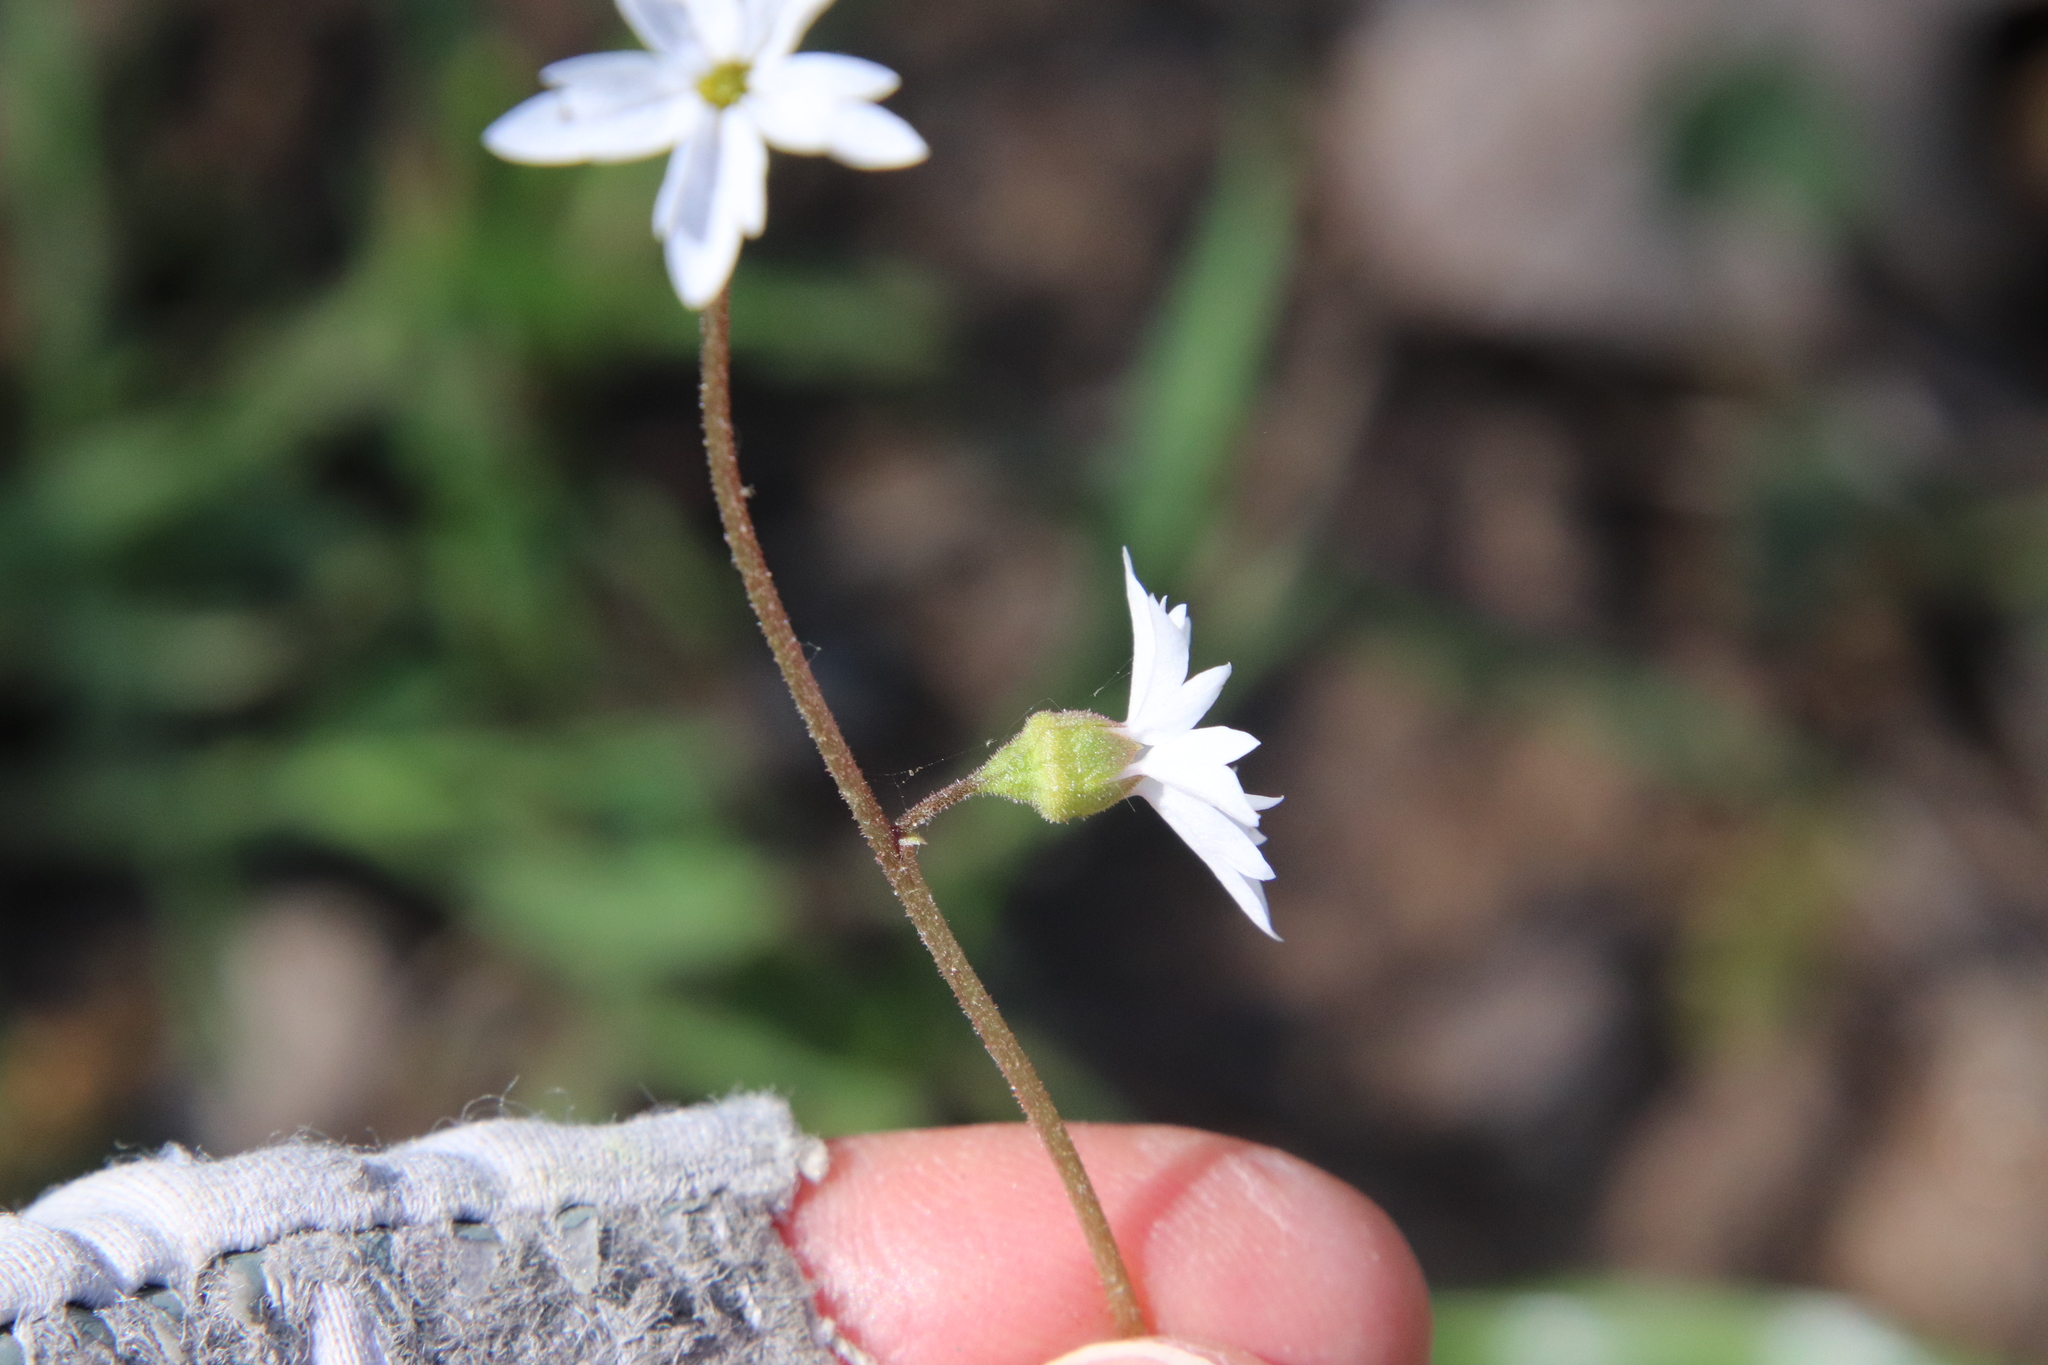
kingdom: Plantae
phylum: Tracheophyta
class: Magnoliopsida
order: Saxifragales
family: Saxifragaceae
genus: Lithophragma
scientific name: Lithophragma affine
